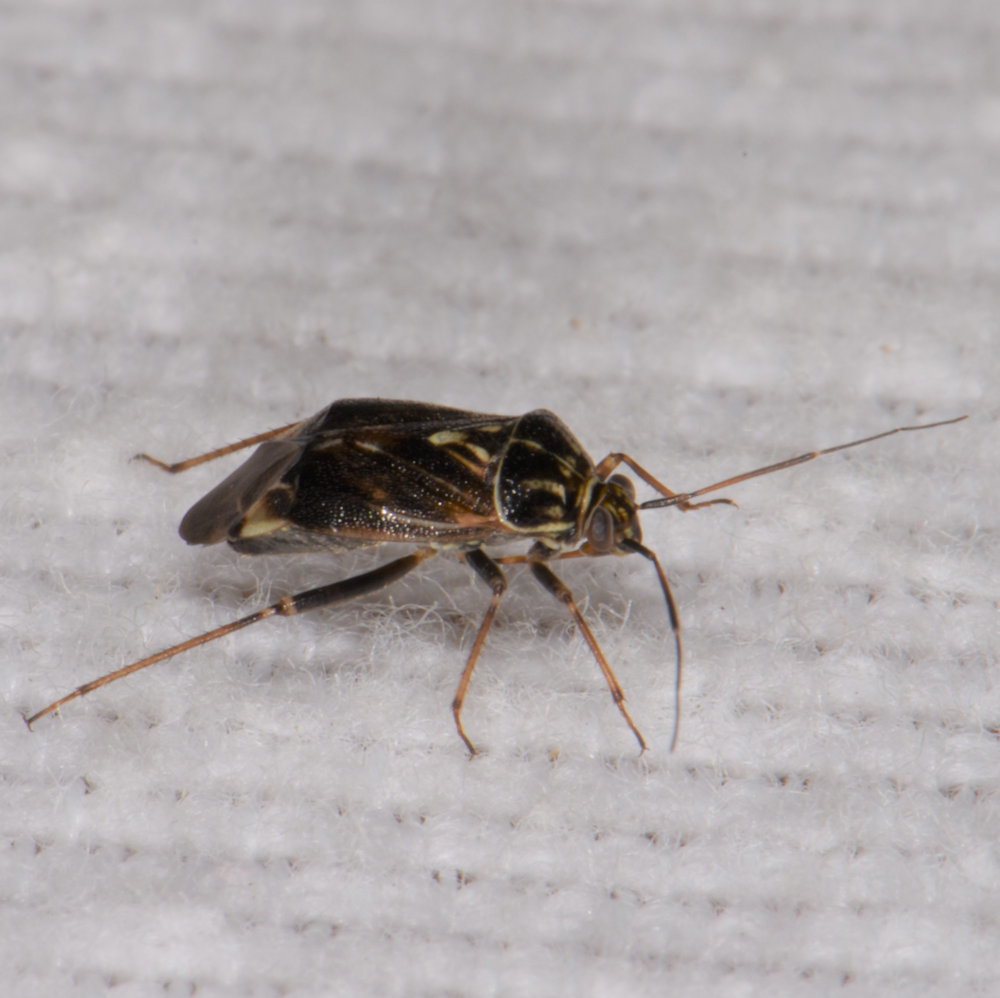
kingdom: Animalia
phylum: Arthropoda
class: Insecta
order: Hemiptera
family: Miridae
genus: Lygus
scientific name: Lygus lineolaris
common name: North american tarnished plant bug
